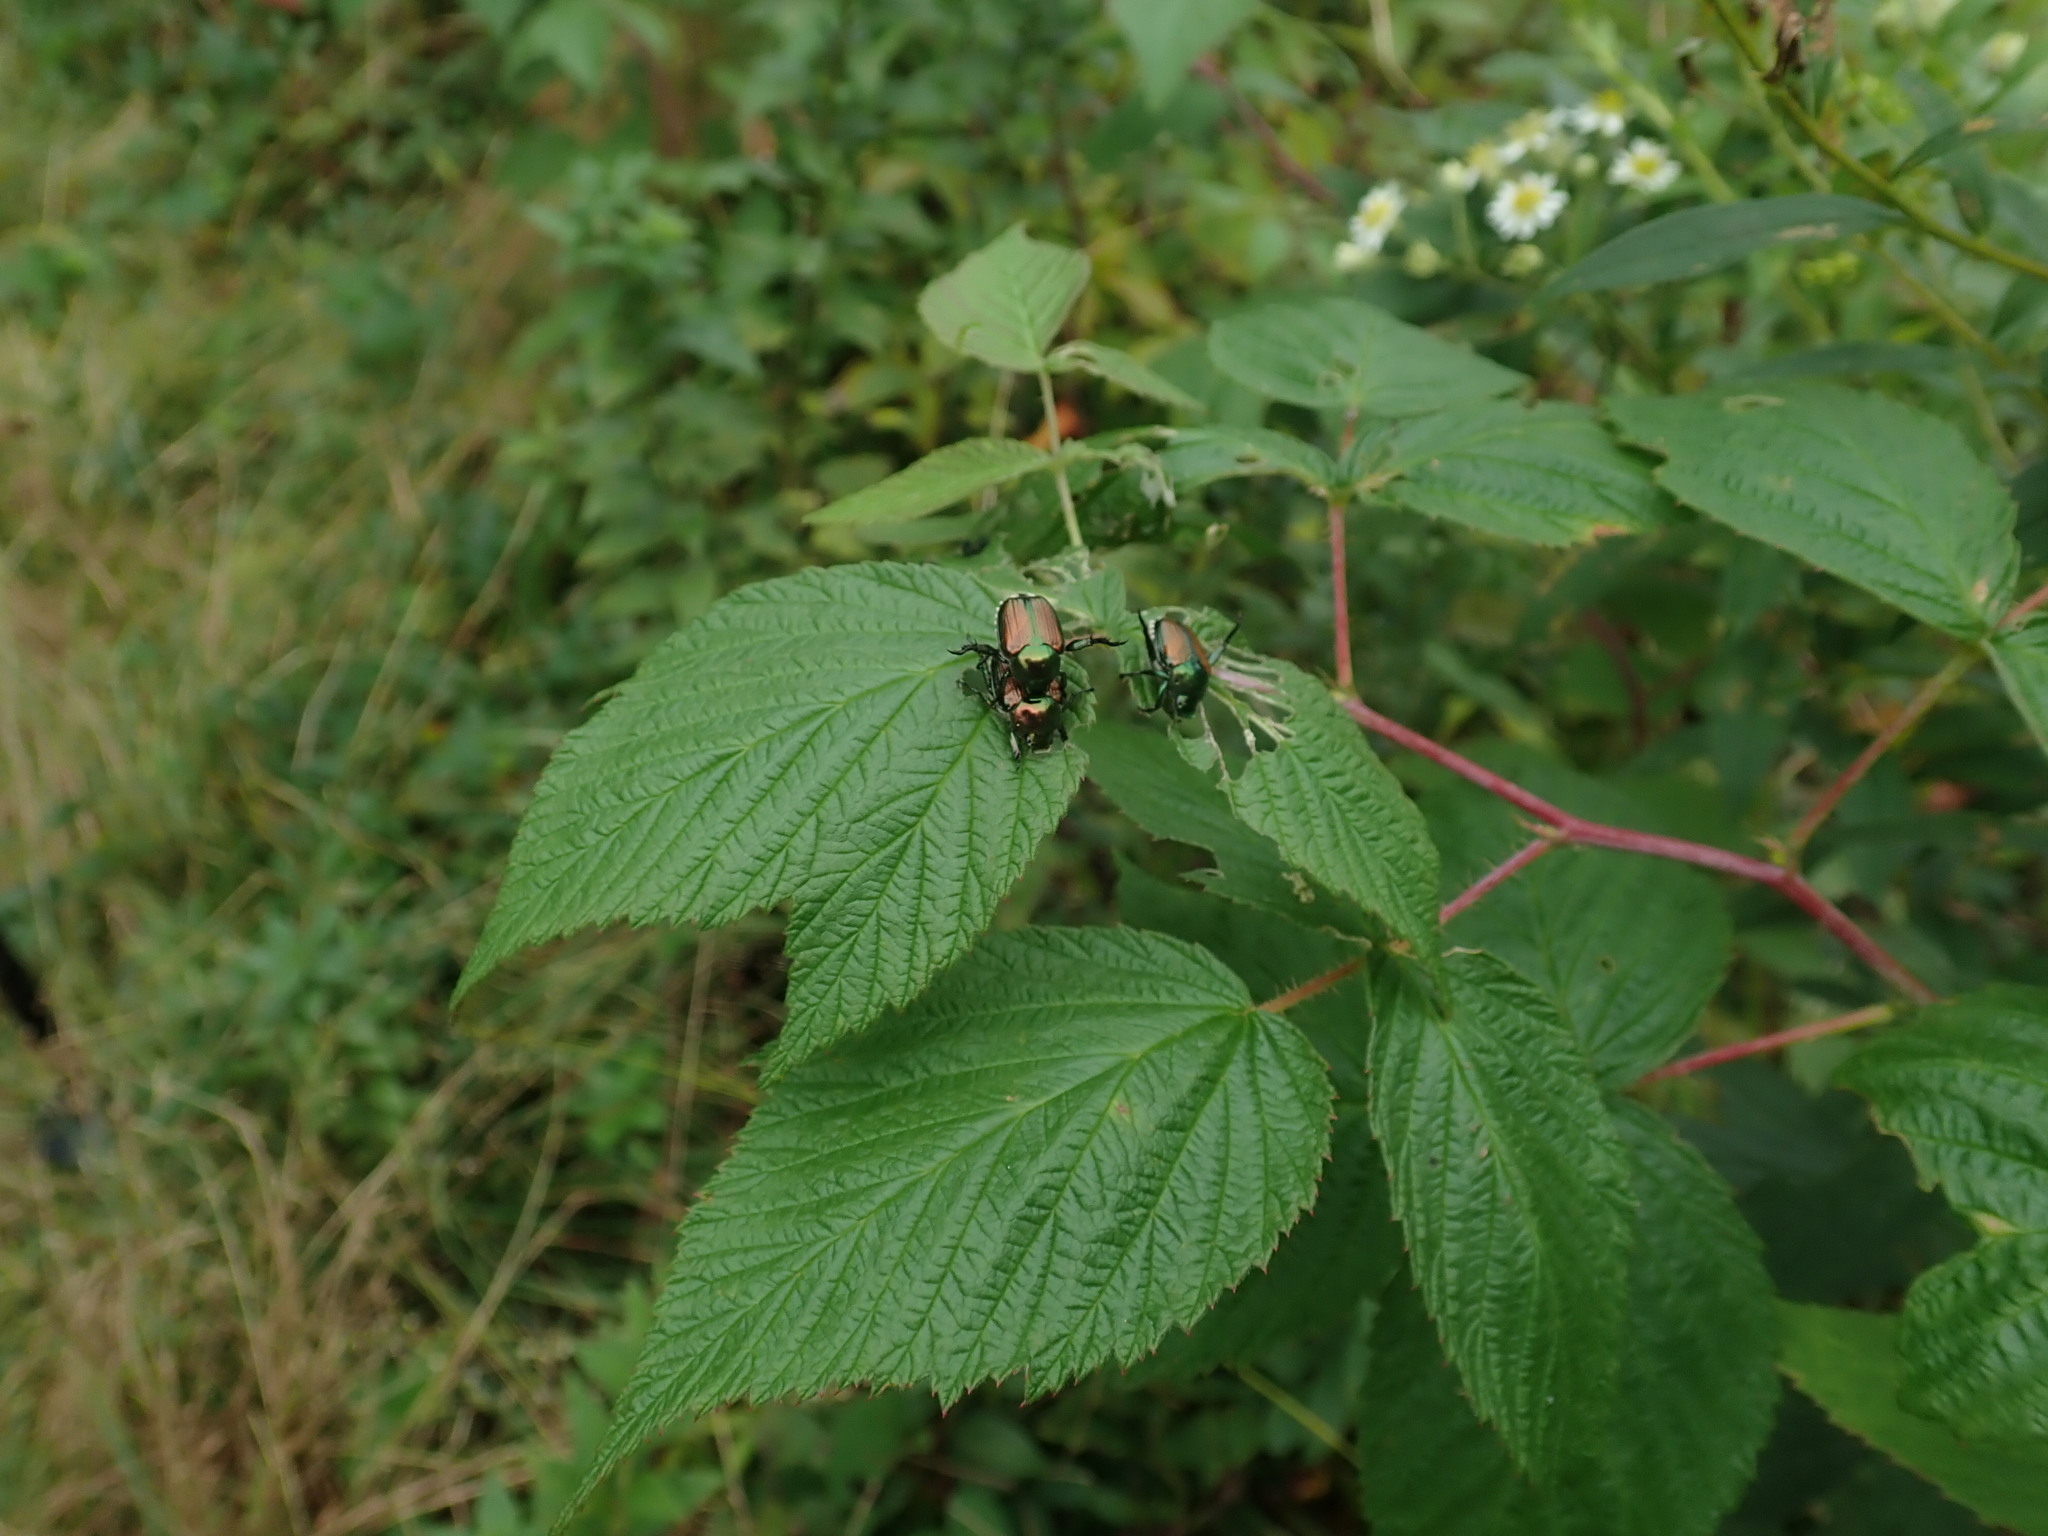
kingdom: Animalia
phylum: Arthropoda
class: Insecta
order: Coleoptera
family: Scarabaeidae
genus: Popillia
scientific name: Popillia japonica
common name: Japanese beetle
